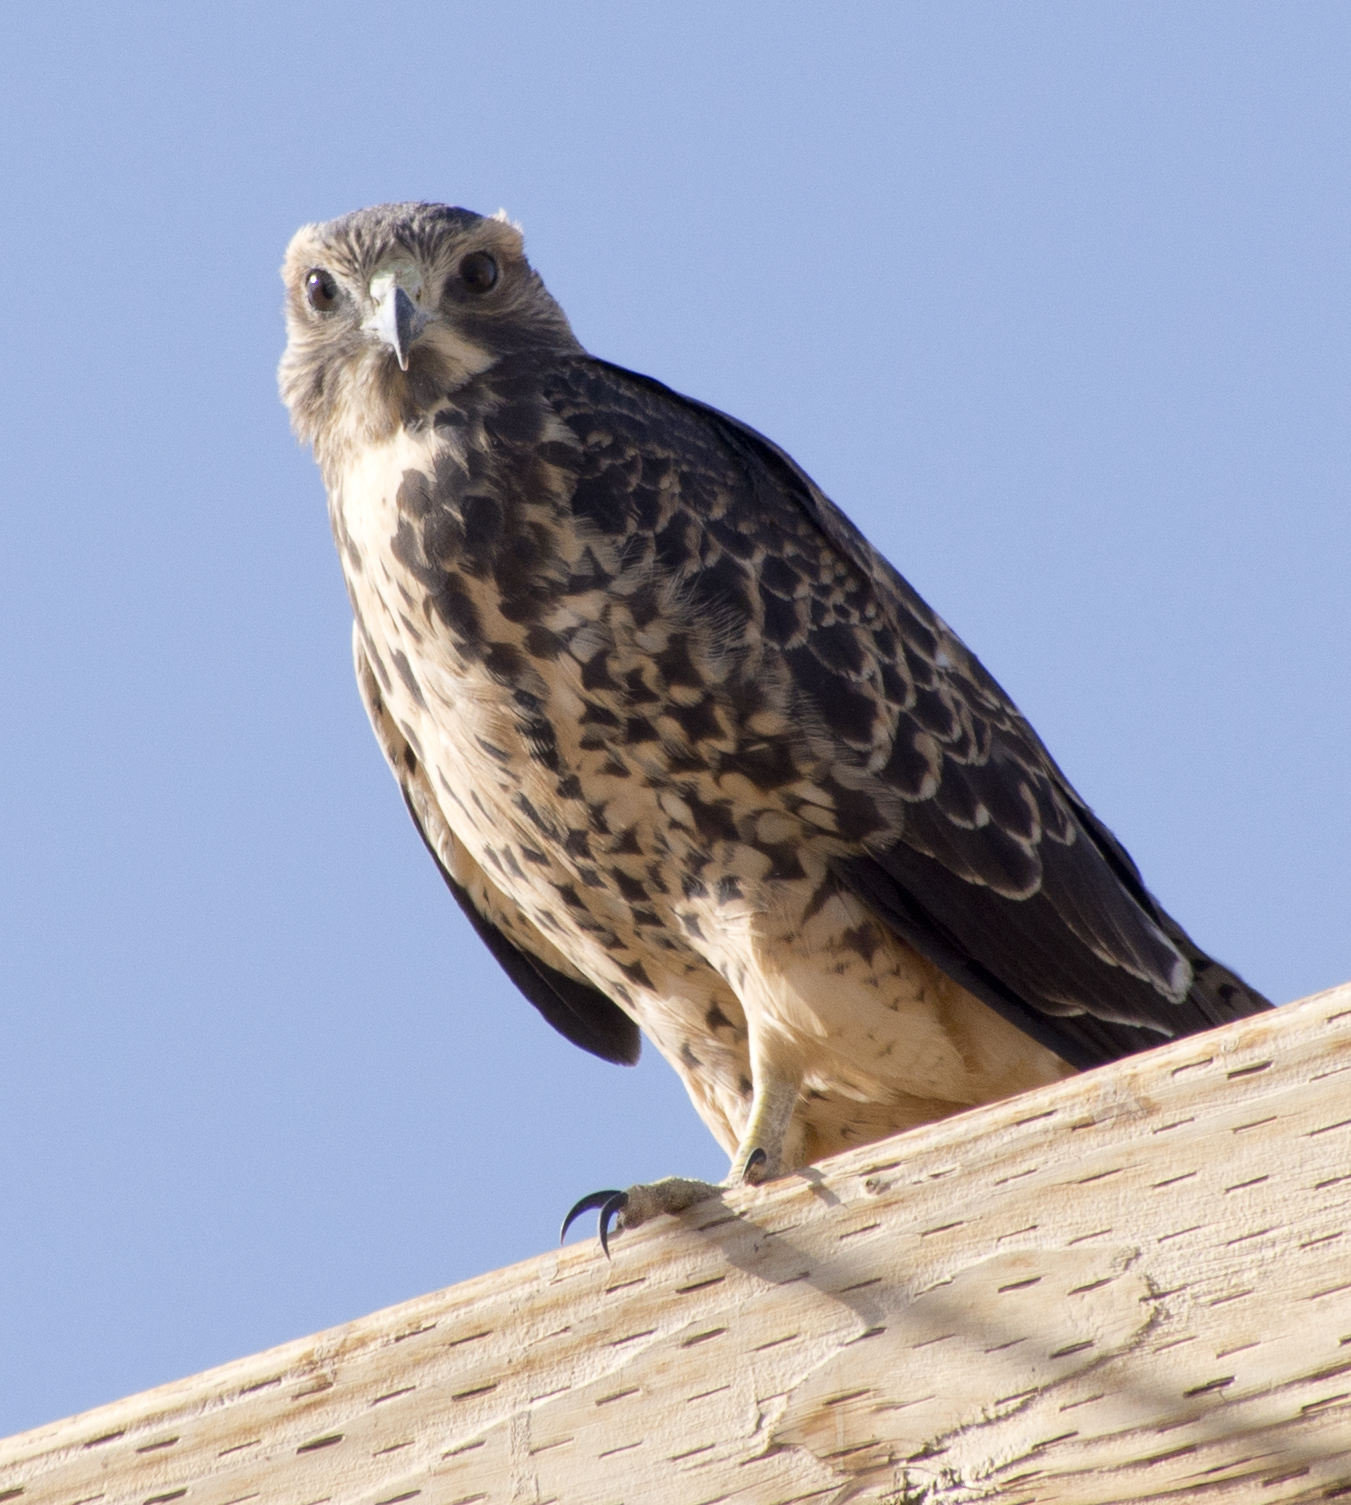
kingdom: Animalia
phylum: Chordata
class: Aves
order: Accipitriformes
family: Accipitridae
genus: Buteo
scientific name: Buteo swainsoni
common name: Swainson's hawk
